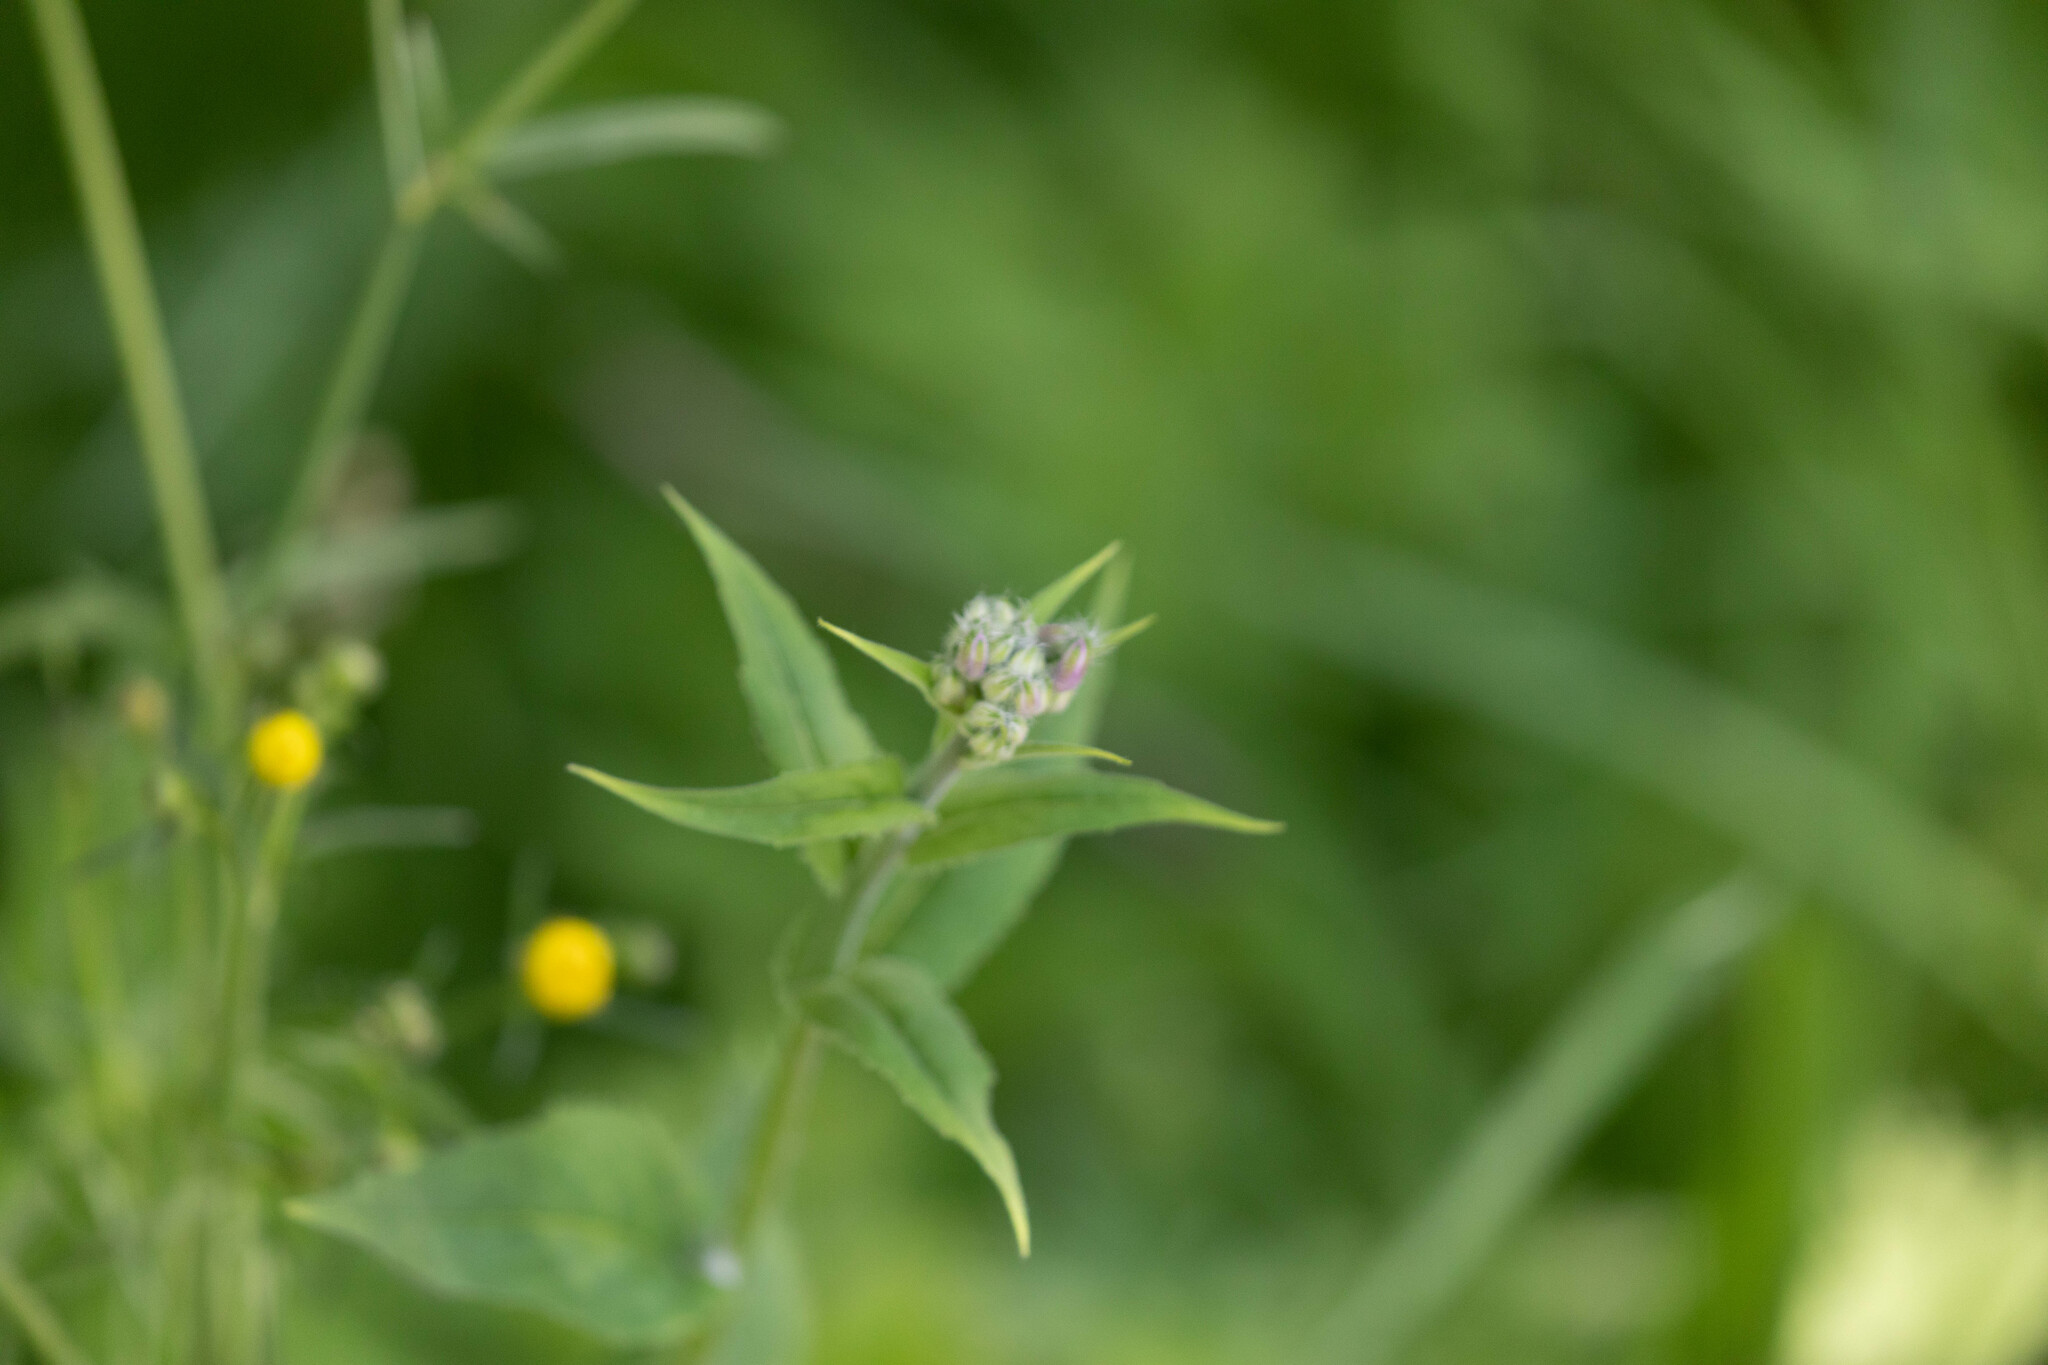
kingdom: Plantae
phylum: Tracheophyta
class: Magnoliopsida
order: Brassicales
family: Brassicaceae
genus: Hesperis
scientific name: Hesperis matronalis
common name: Dame's-violet
